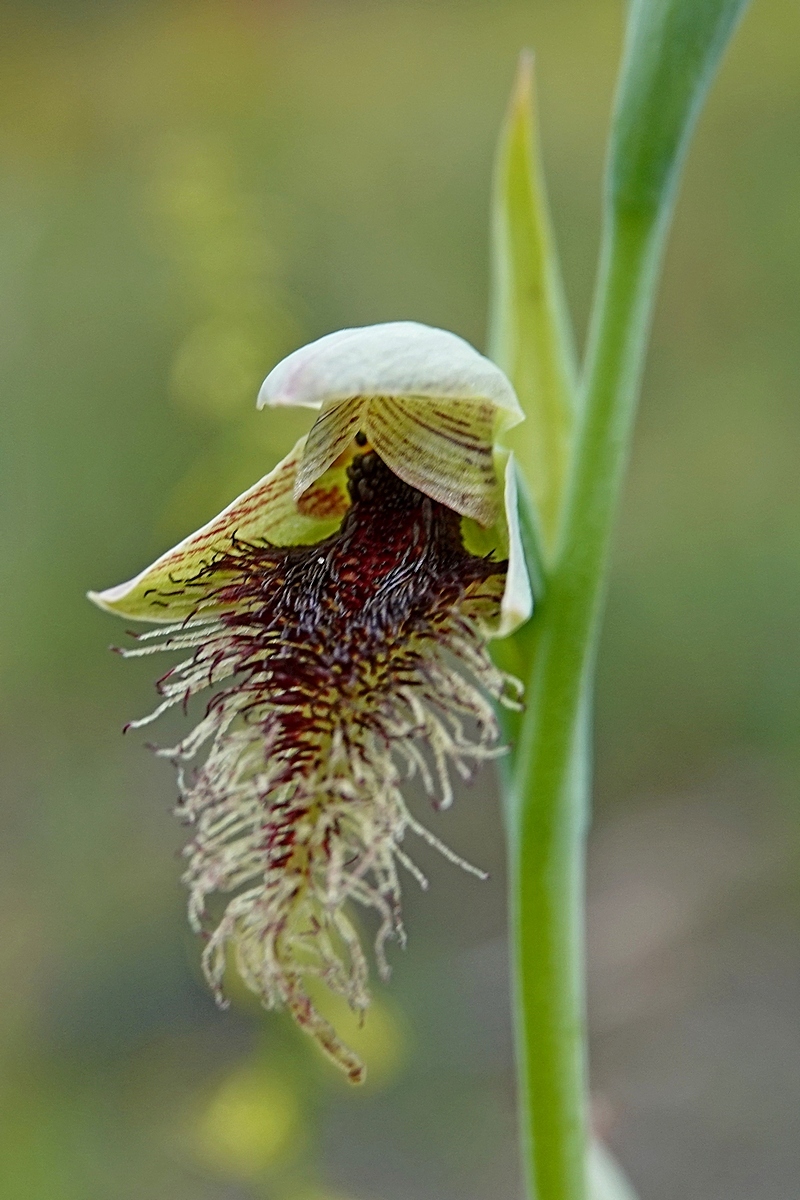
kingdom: Plantae
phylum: Tracheophyta
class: Liliopsida
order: Asparagales
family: Orchidaceae
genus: Calochilus
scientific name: Calochilus robertsonii
